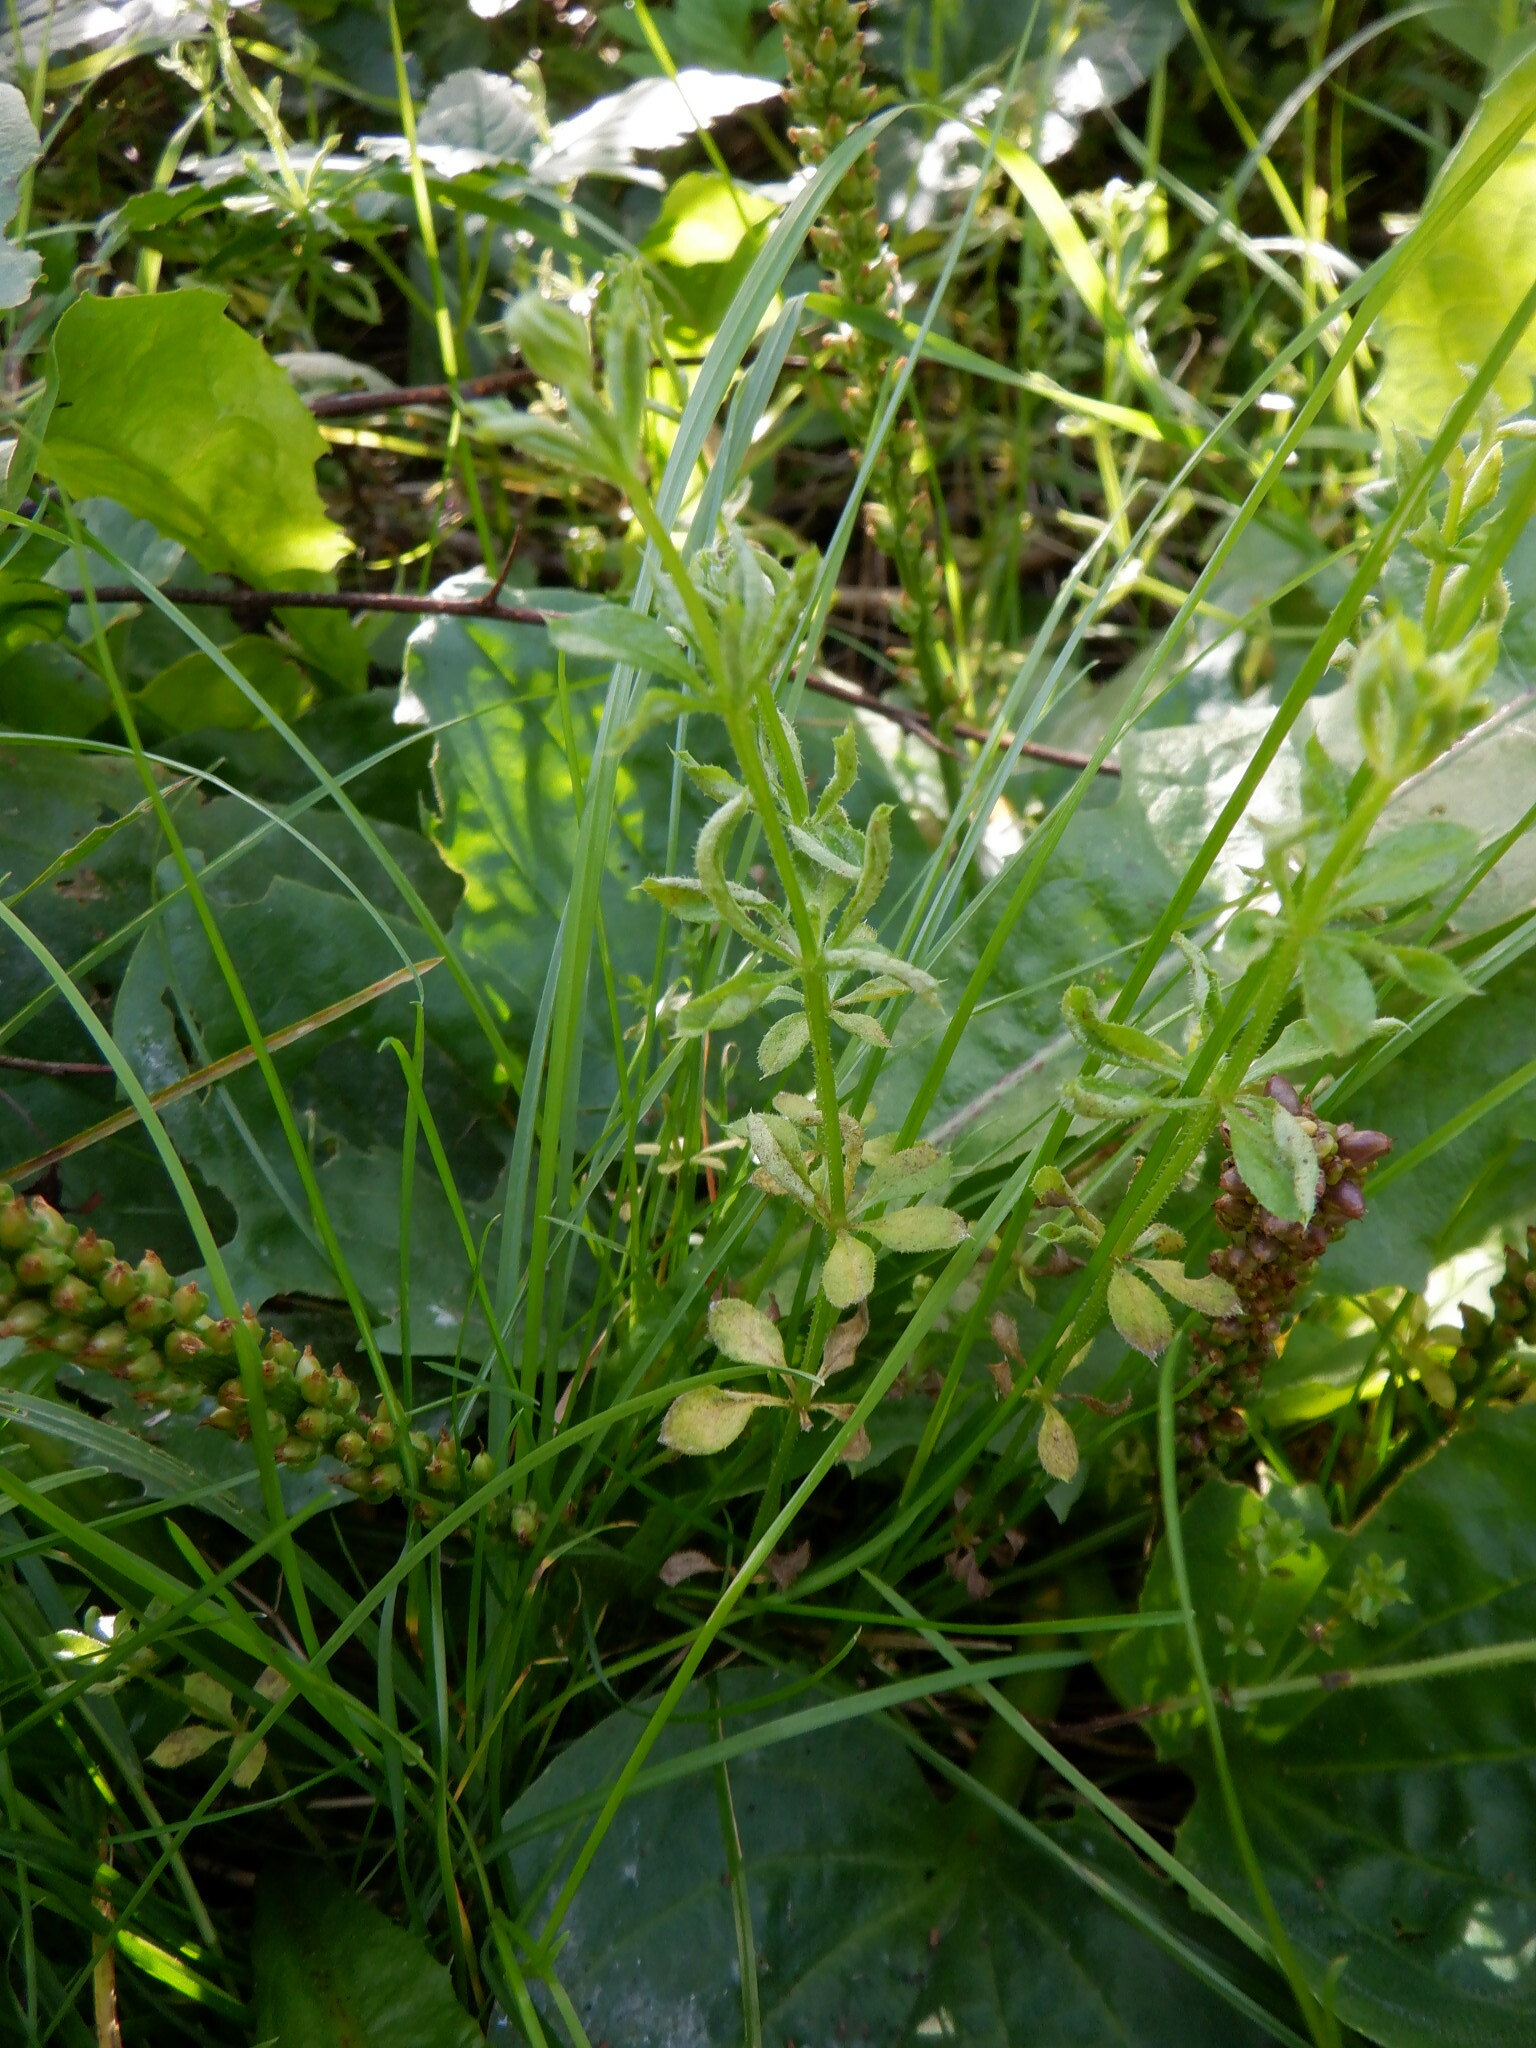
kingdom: Animalia
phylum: Arthropoda
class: Arachnida
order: Trombidiformes
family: Eriophyidae
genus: Cecidophyes
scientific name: Cecidophyes rouhollahi
